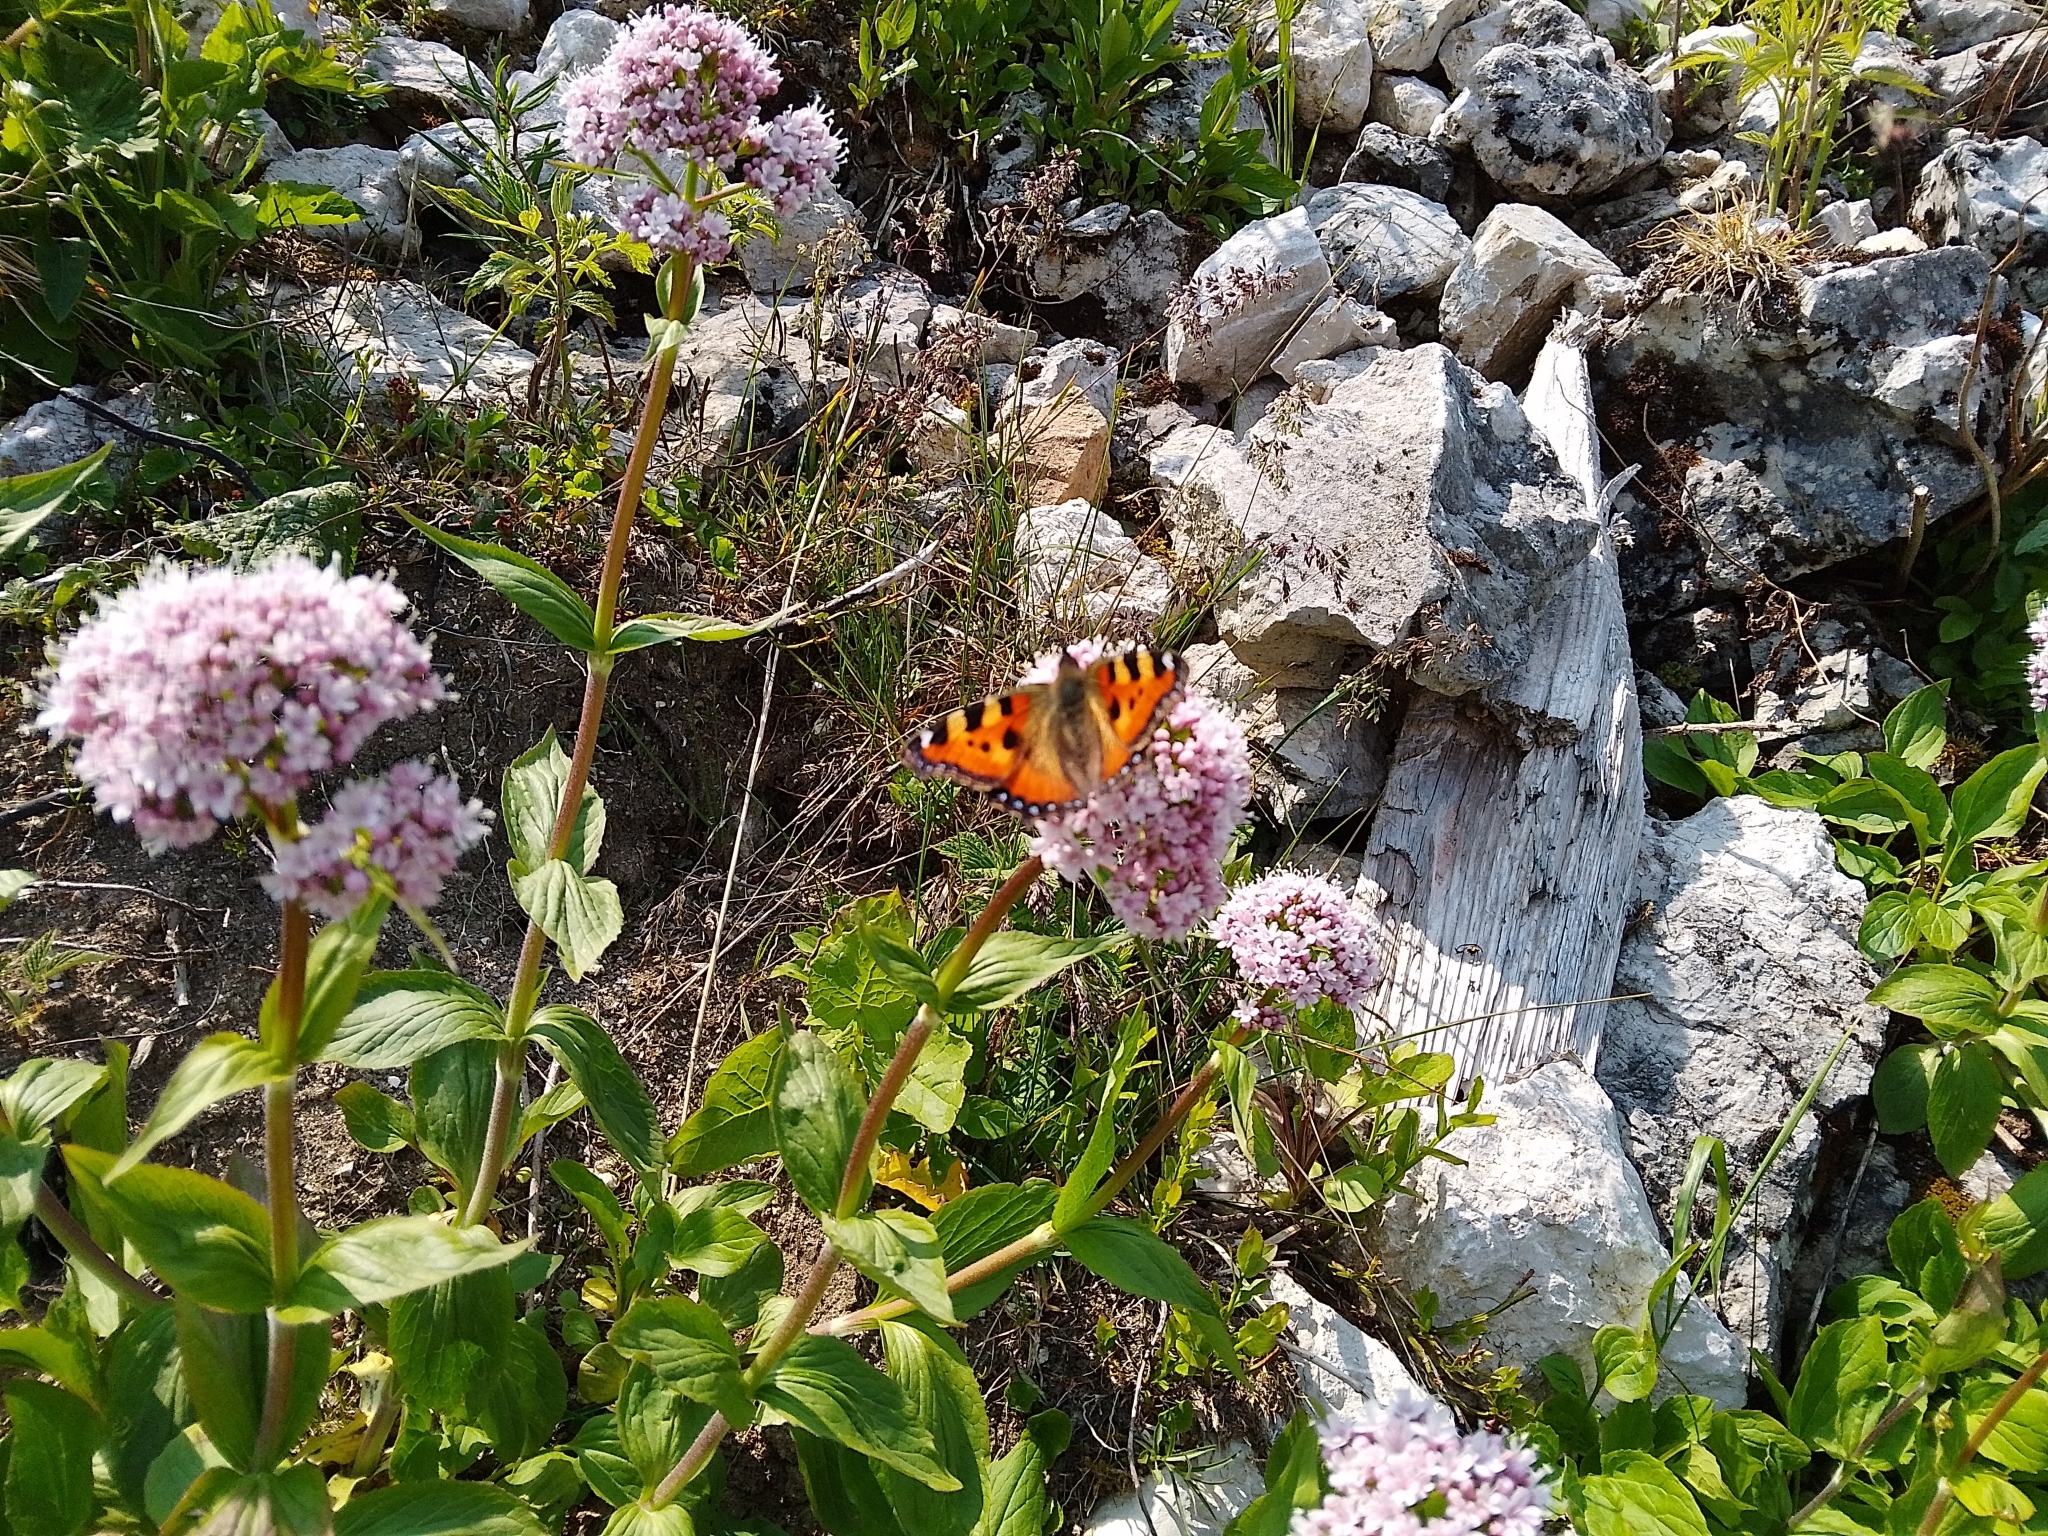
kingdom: Animalia
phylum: Arthropoda
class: Insecta
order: Lepidoptera
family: Nymphalidae
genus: Aglais
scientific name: Aglais urticae
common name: Small tortoiseshell
